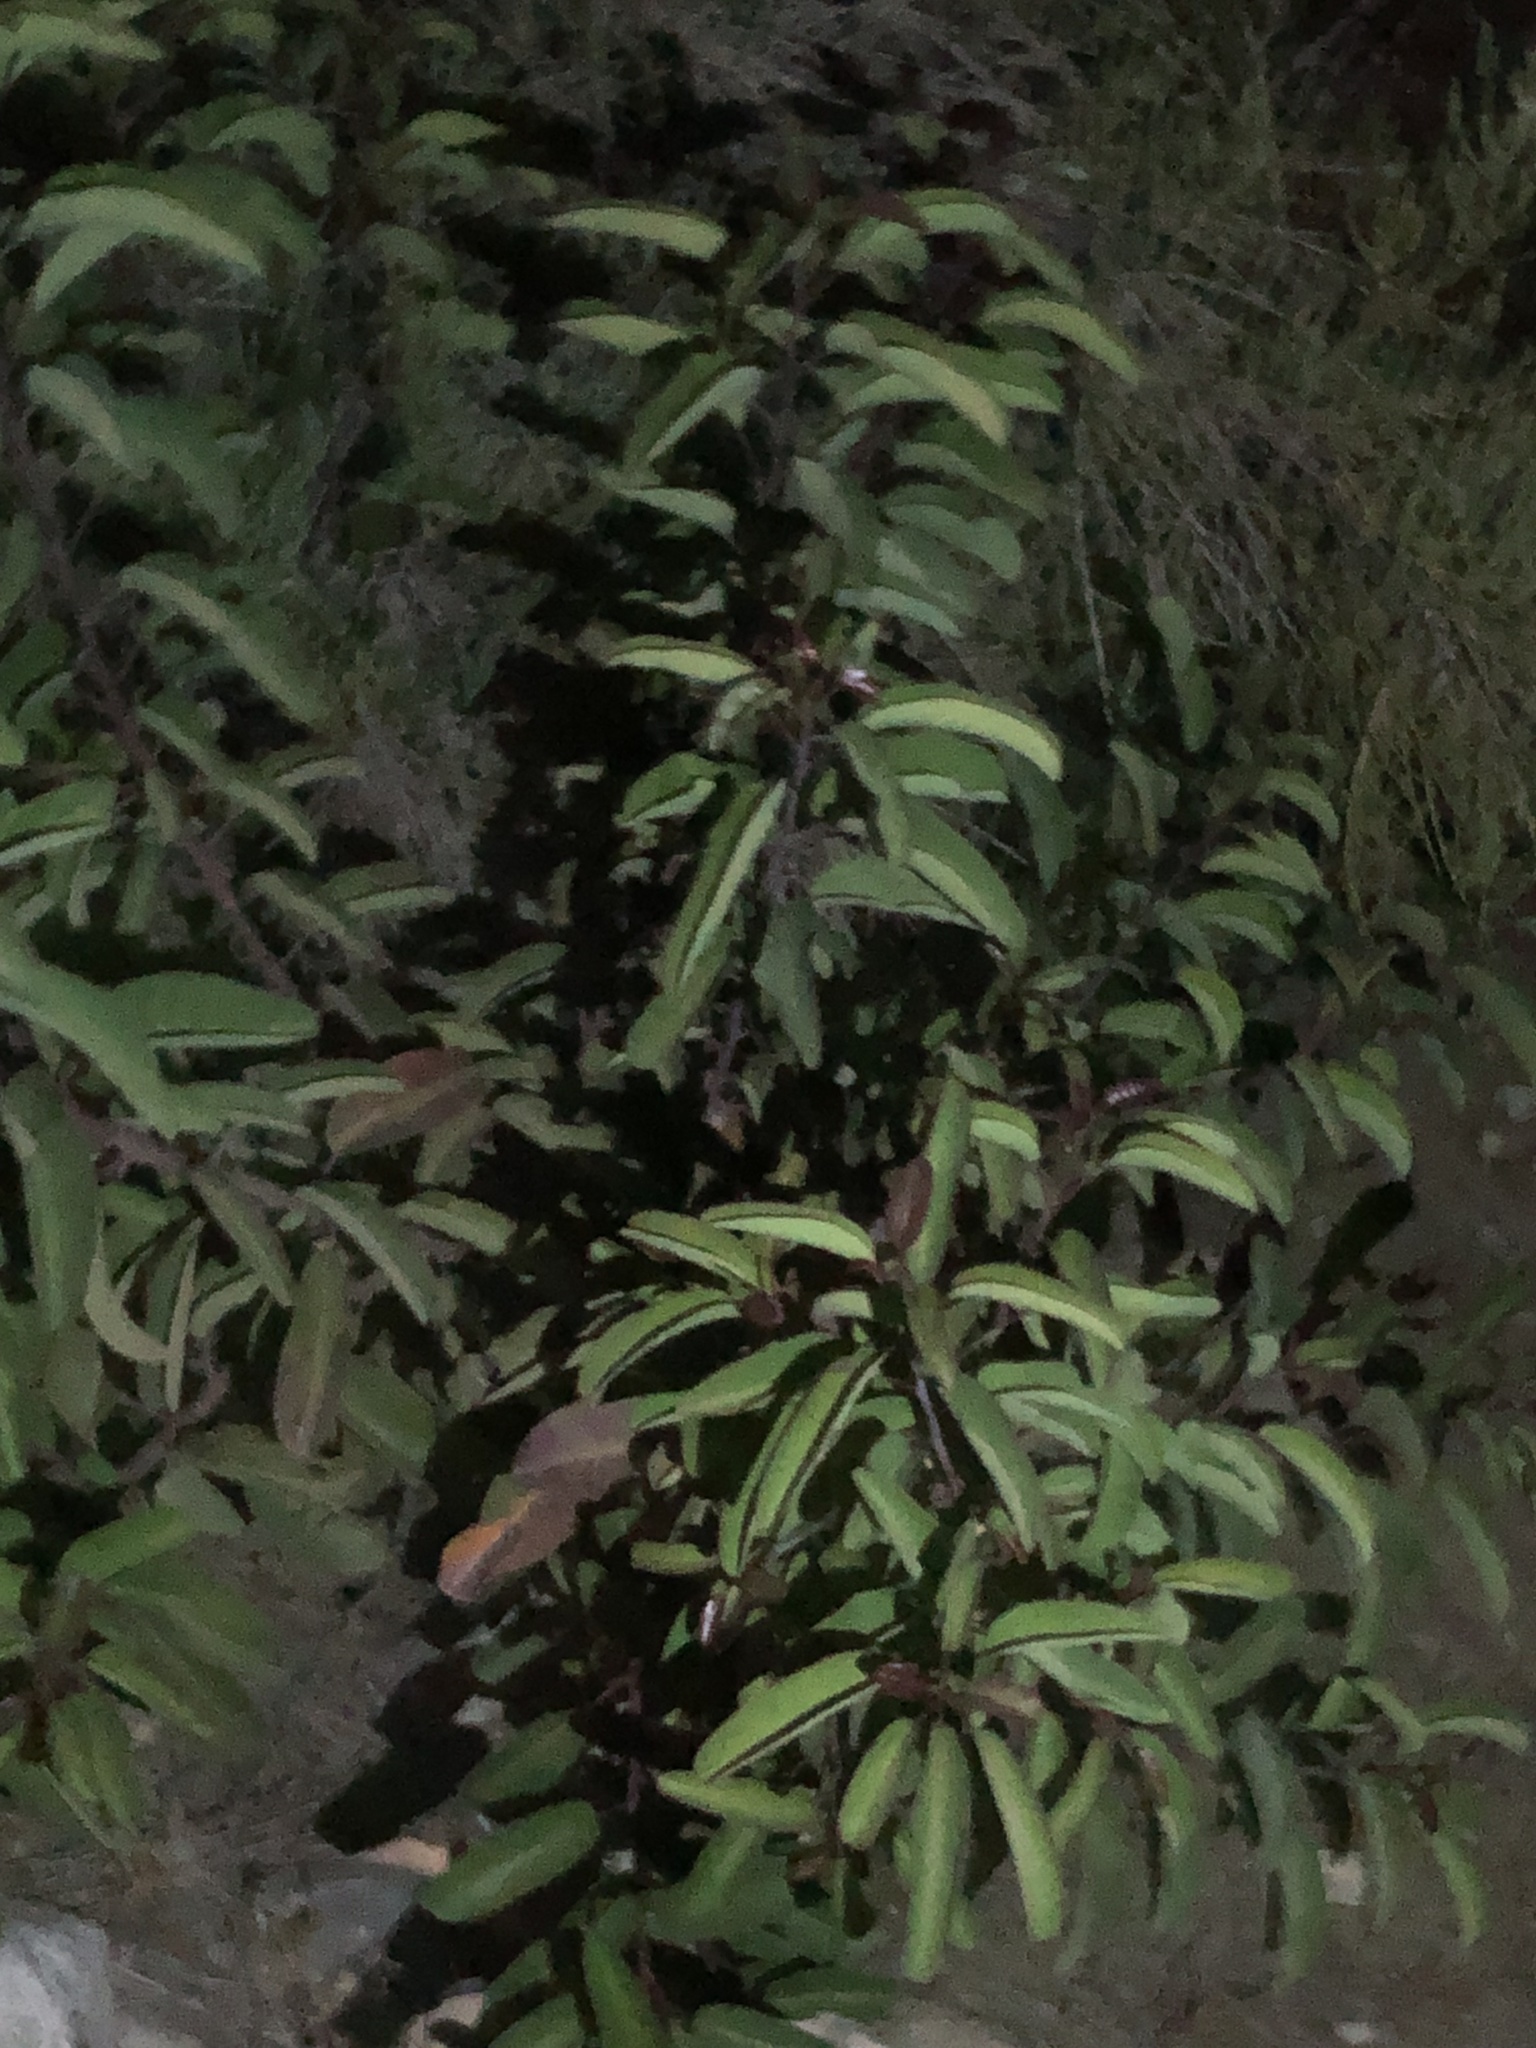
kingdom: Plantae
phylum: Tracheophyta
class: Magnoliopsida
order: Sapindales
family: Anacardiaceae
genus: Malosma
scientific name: Malosma laurina
